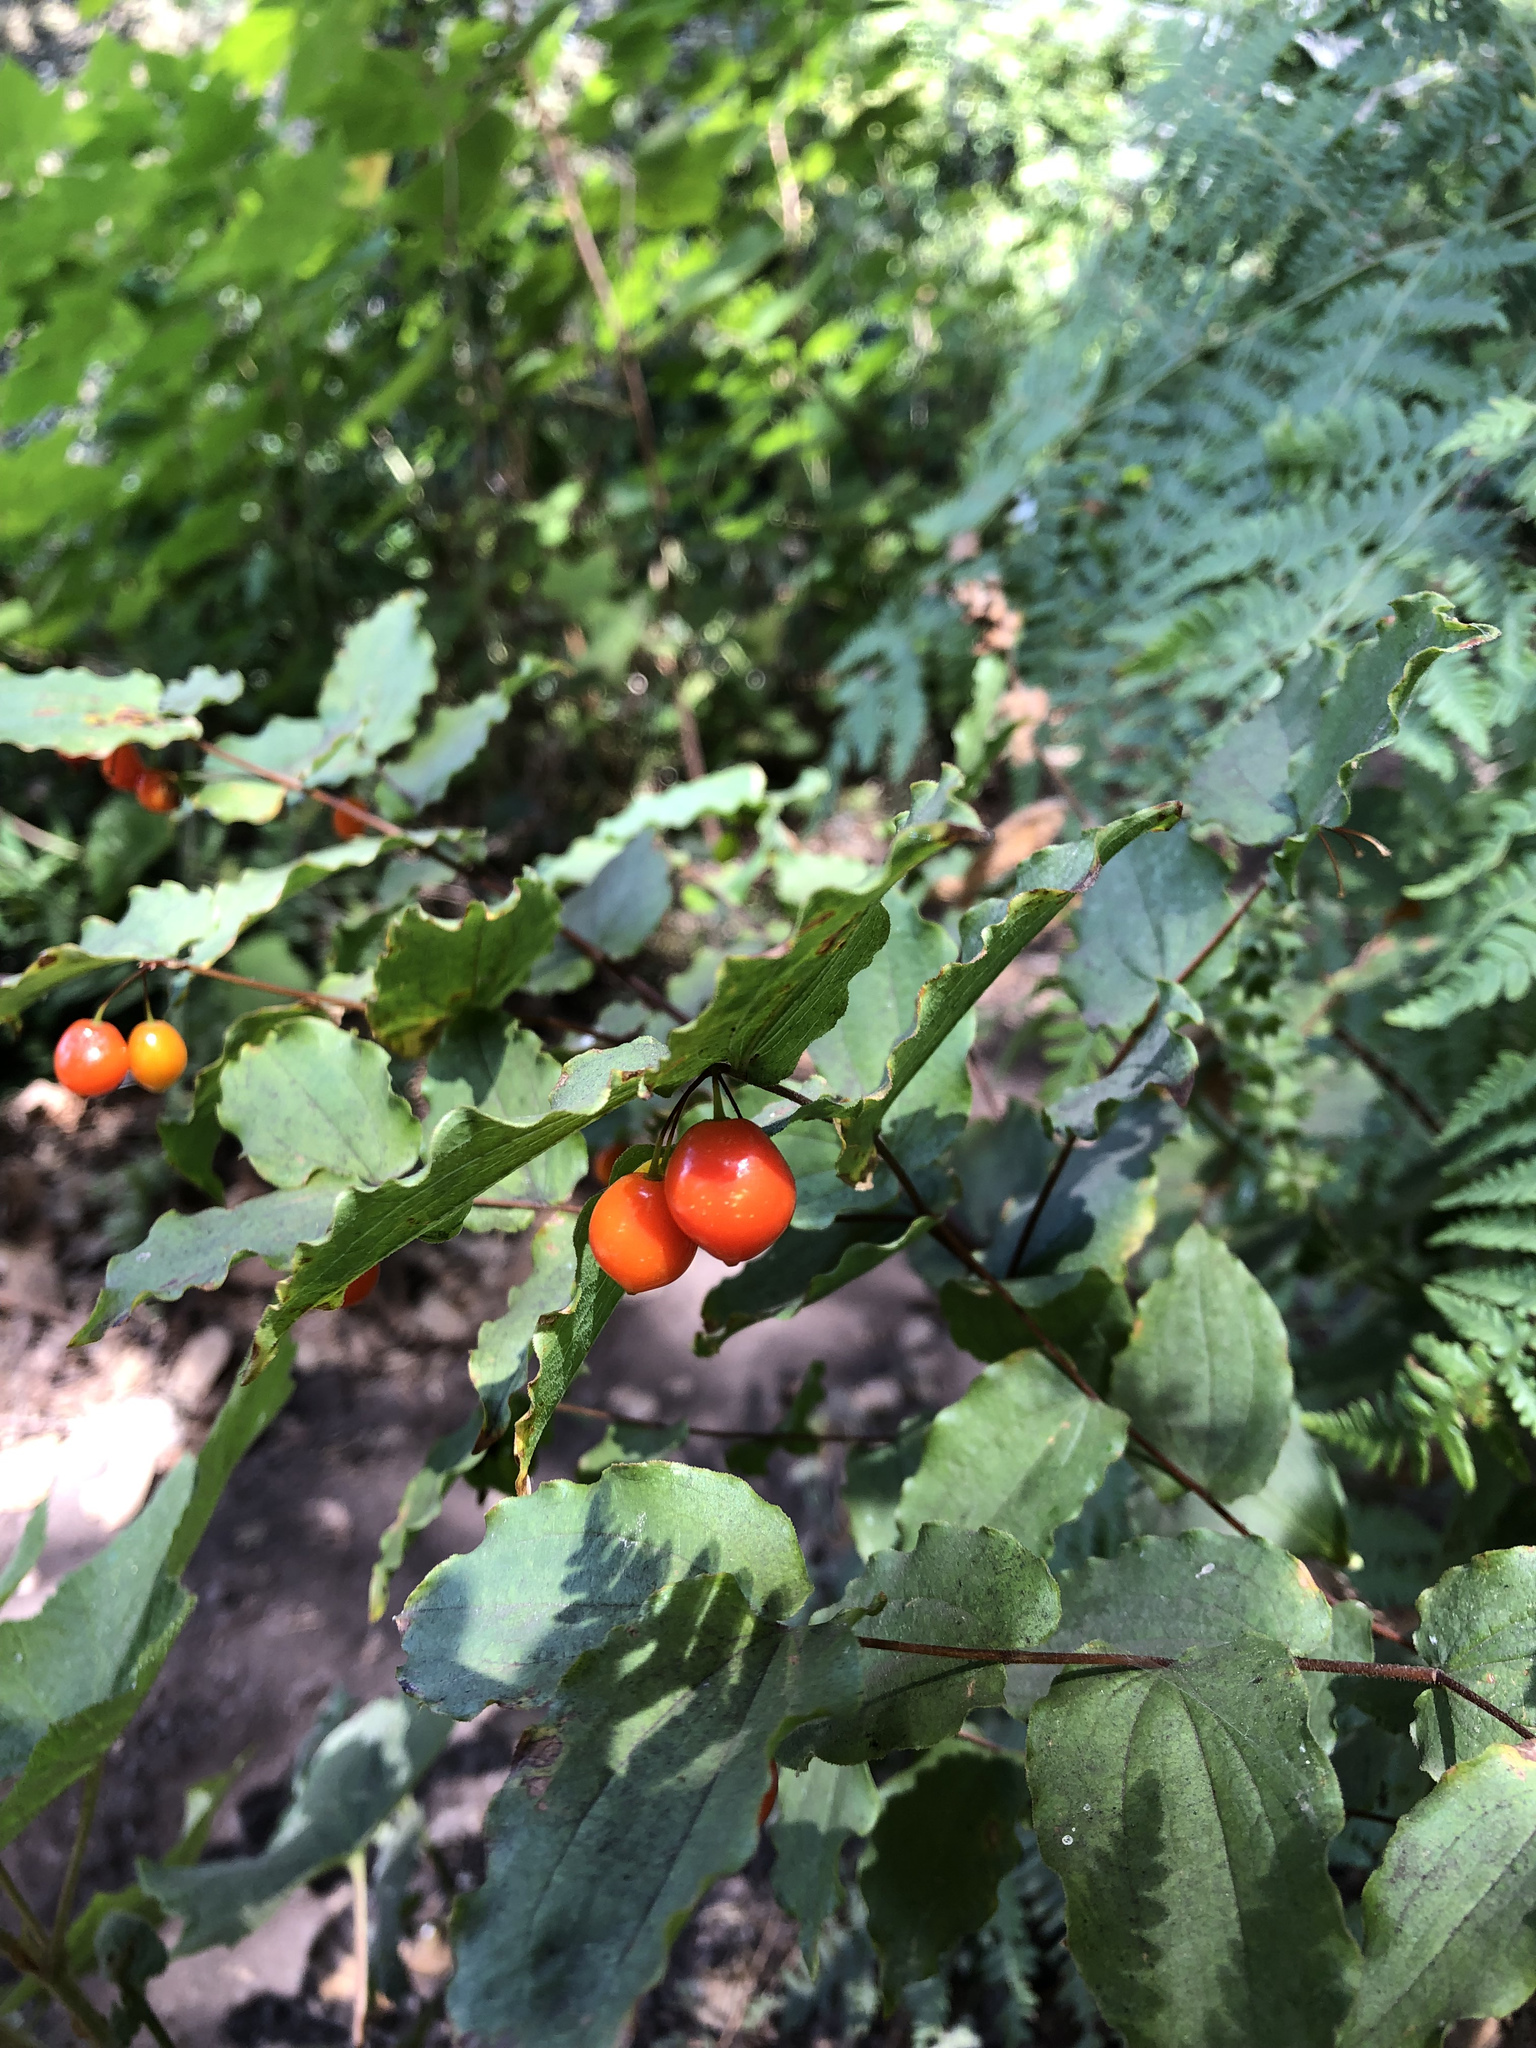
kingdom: Plantae
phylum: Tracheophyta
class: Liliopsida
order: Liliales
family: Liliaceae
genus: Prosartes
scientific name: Prosartes hookeri
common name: Fairy-bells
